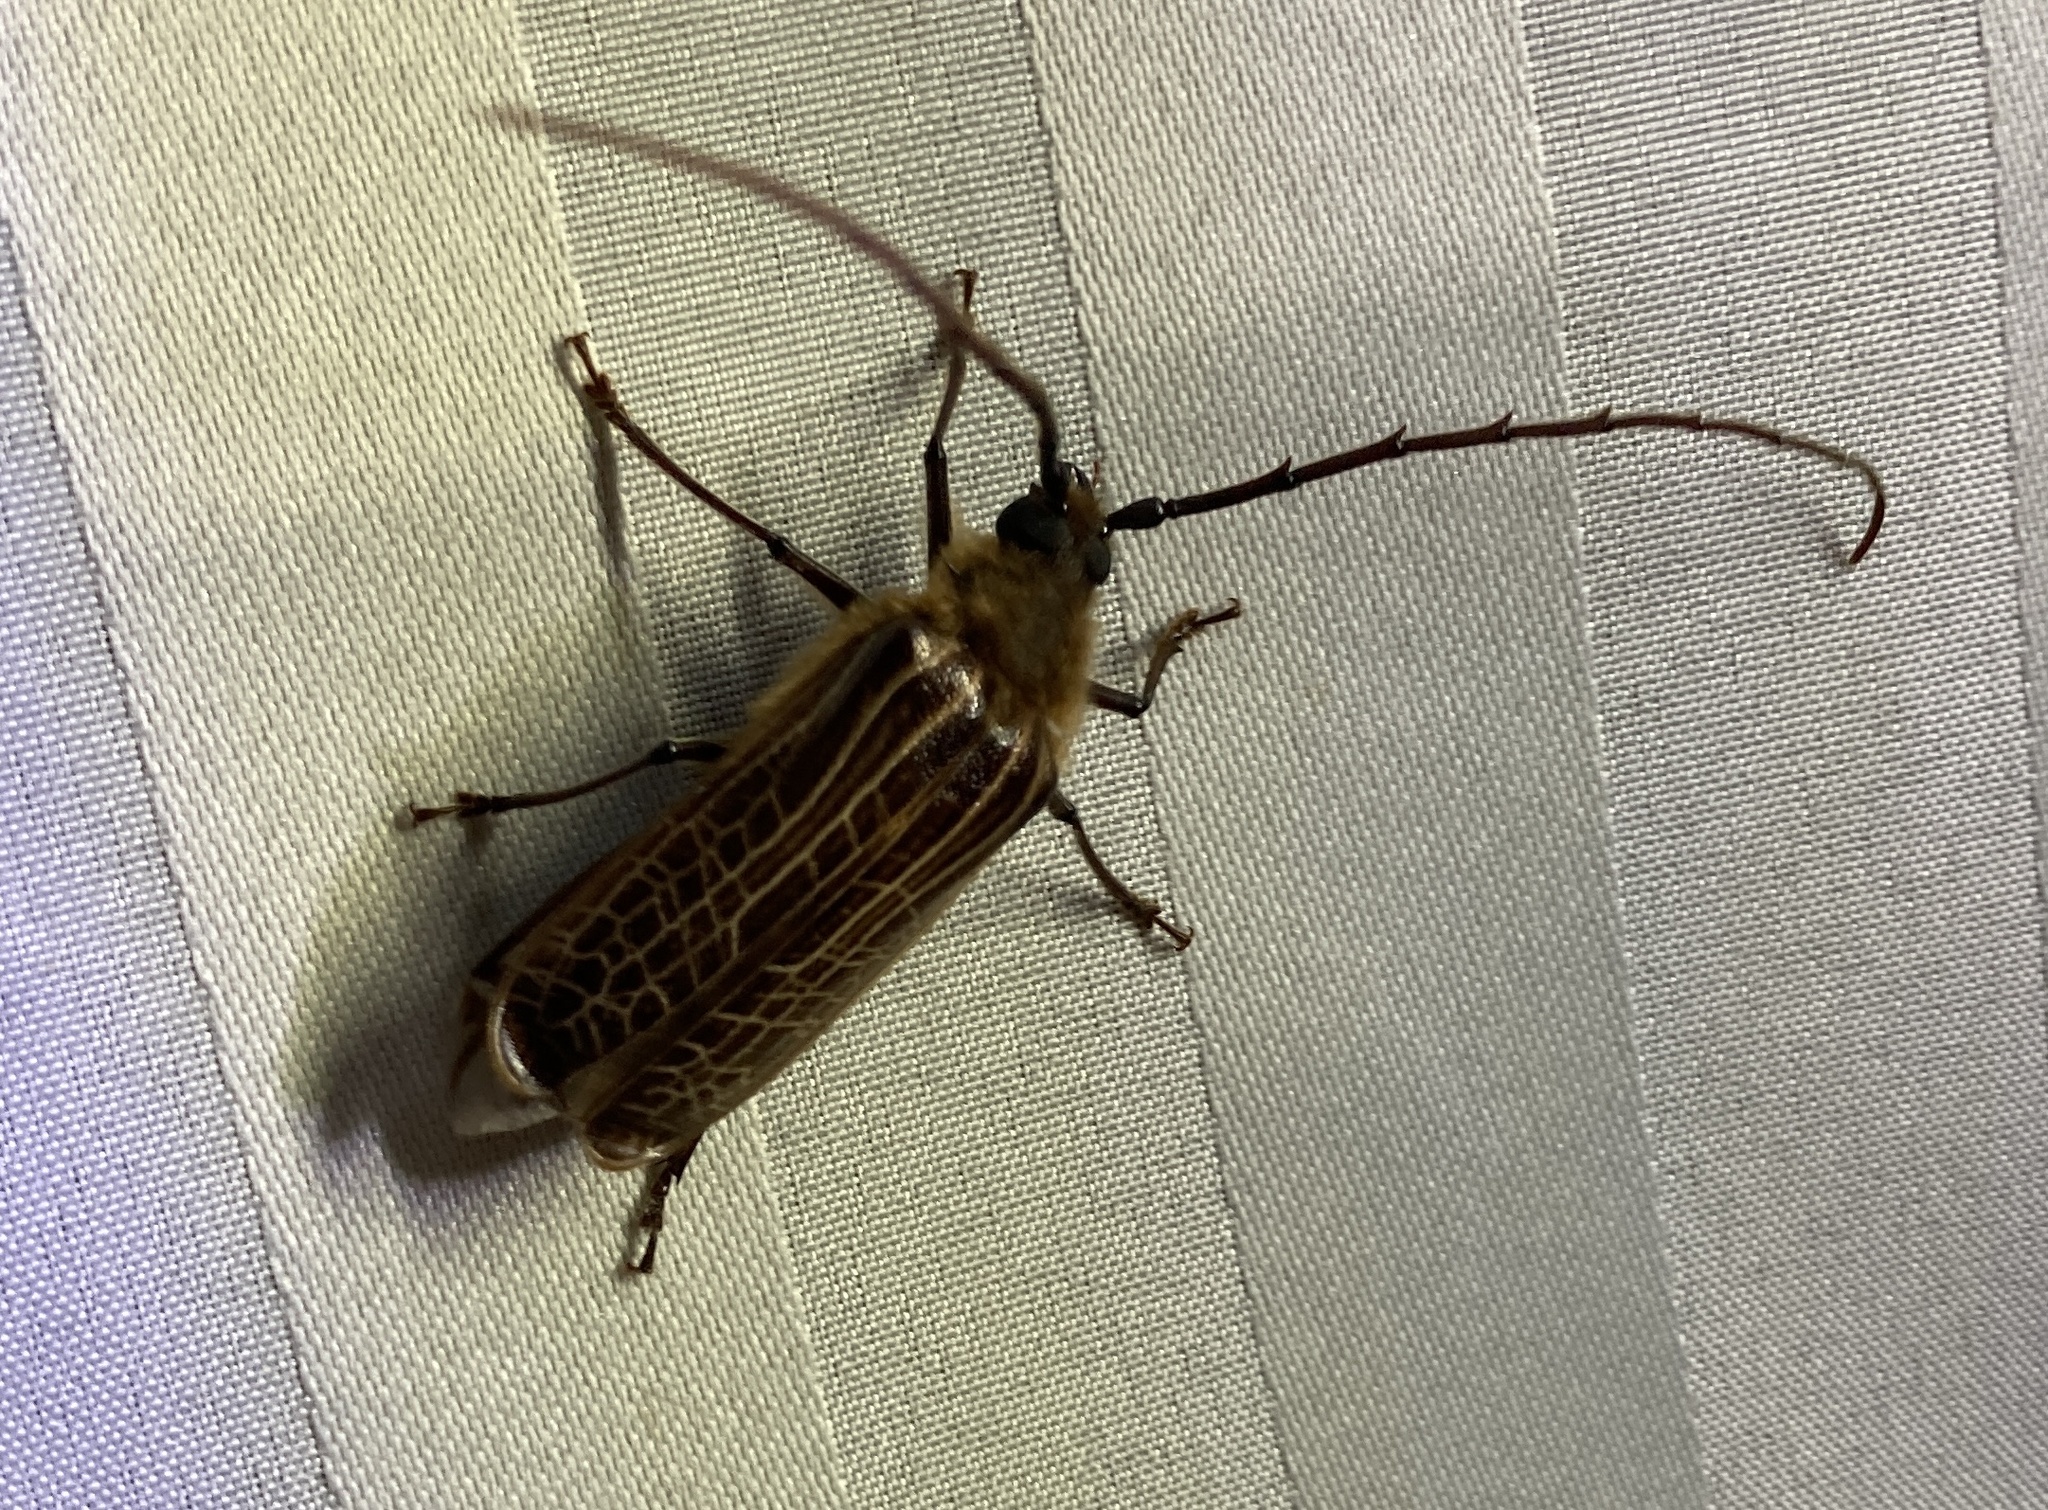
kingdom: Animalia
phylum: Arthropoda
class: Insecta
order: Coleoptera
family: Cerambycidae
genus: Prionoplus
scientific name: Prionoplus reticularis
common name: Huhu beetle
